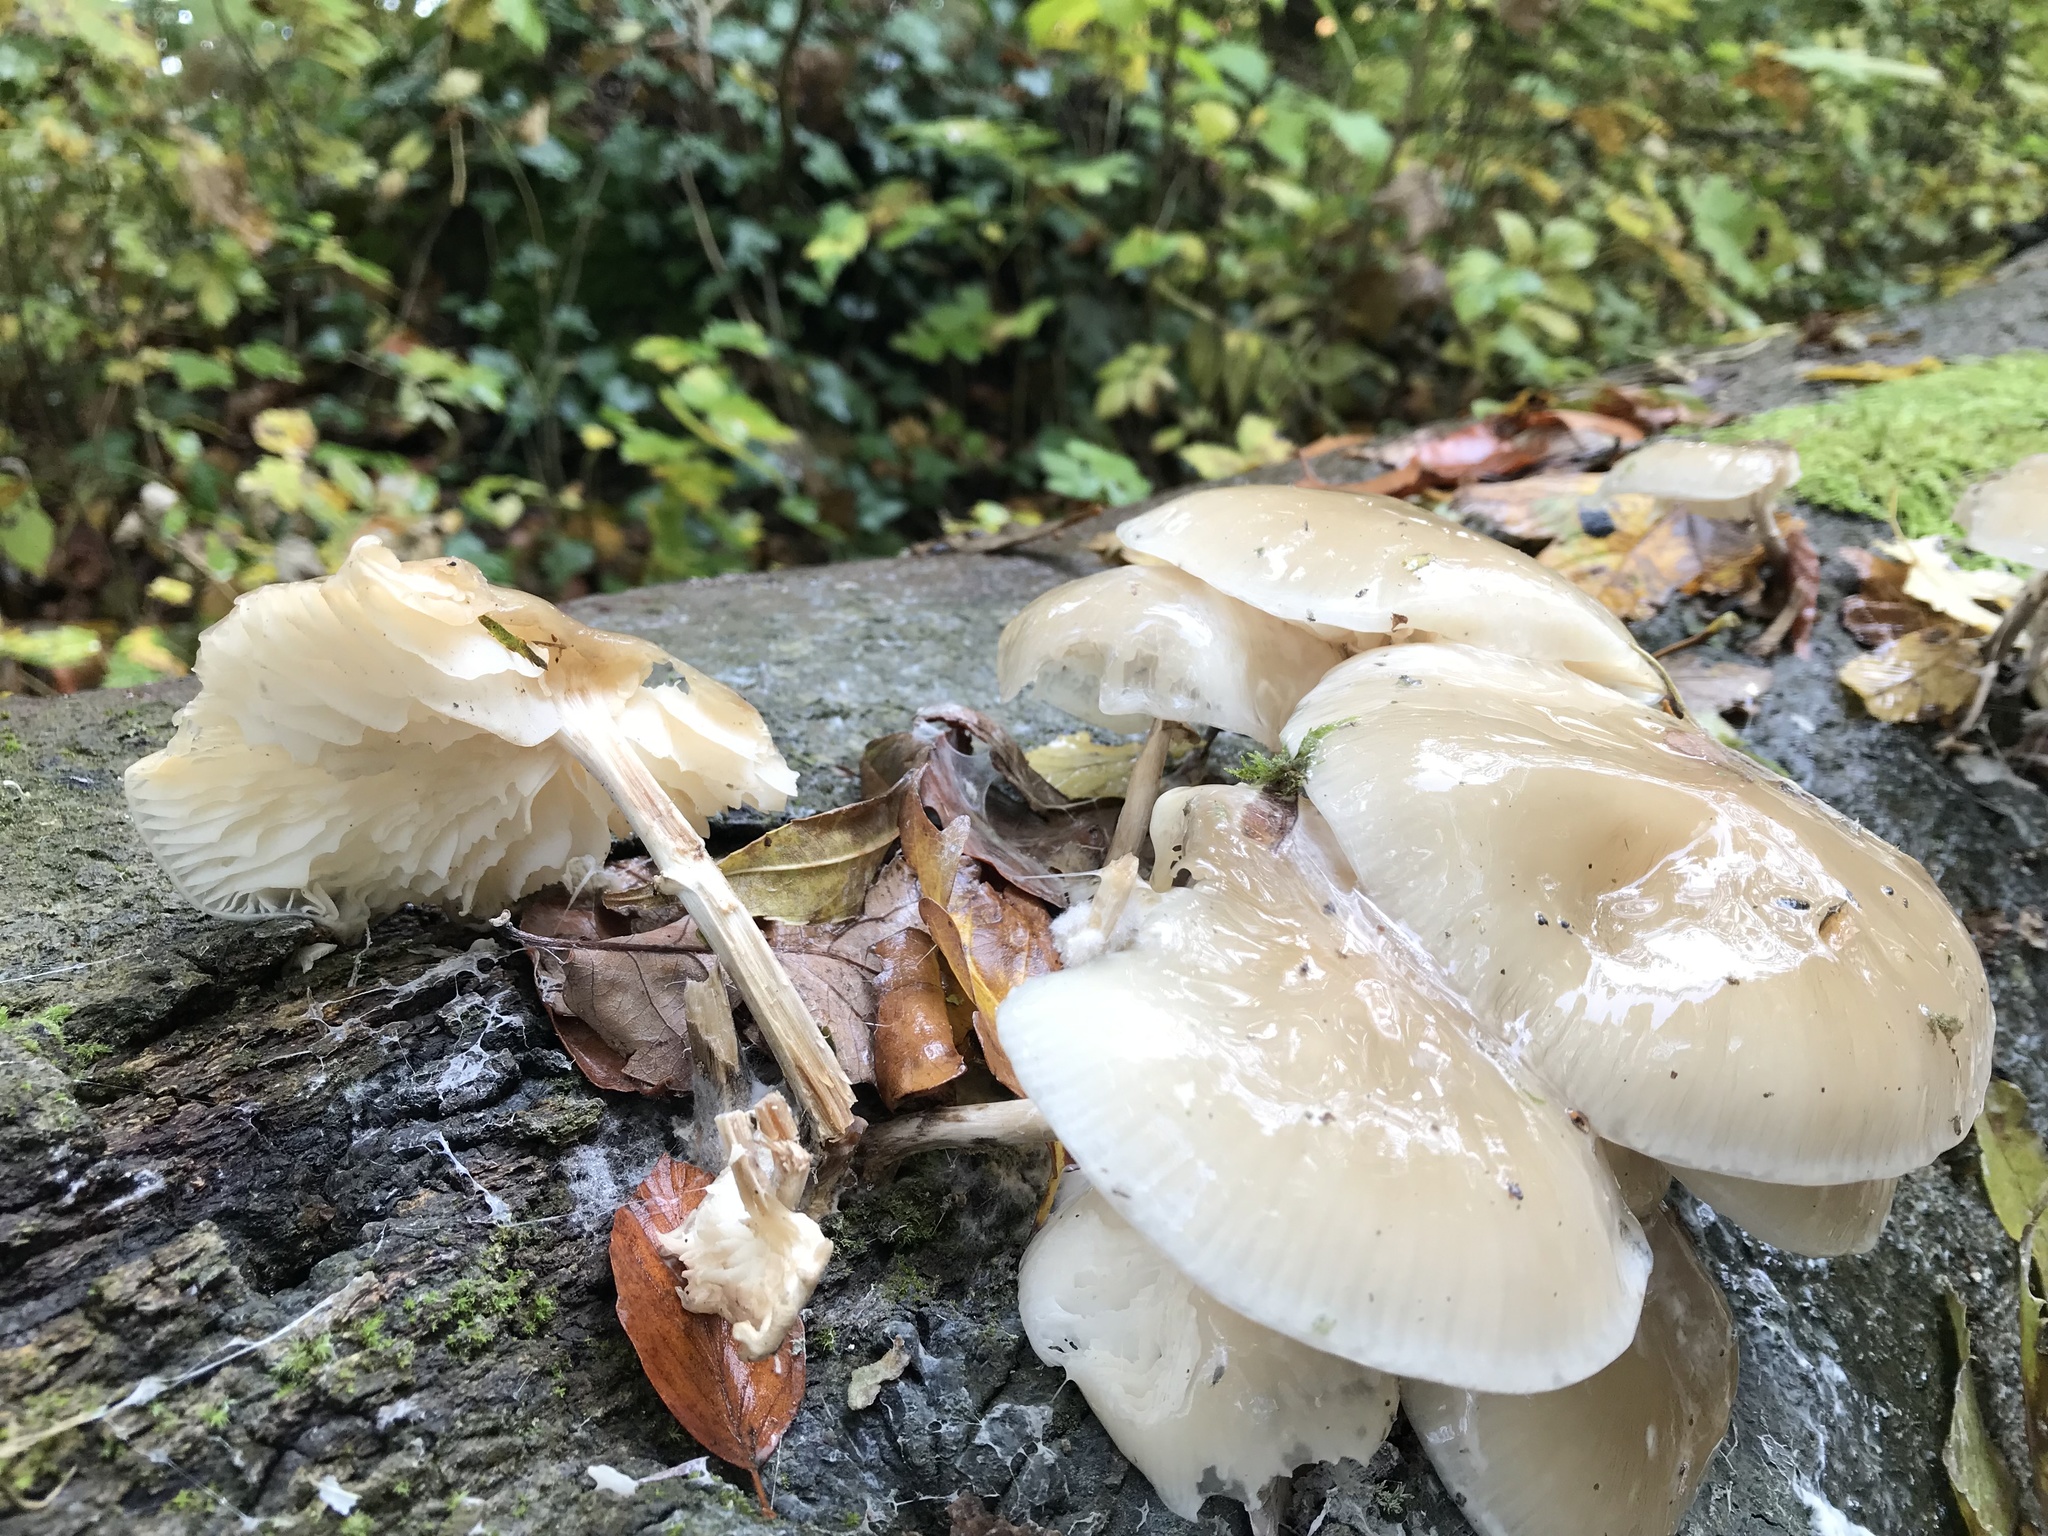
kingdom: Fungi
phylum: Basidiomycota
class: Agaricomycetes
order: Agaricales
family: Physalacriaceae
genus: Mucidula
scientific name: Mucidula mucida
